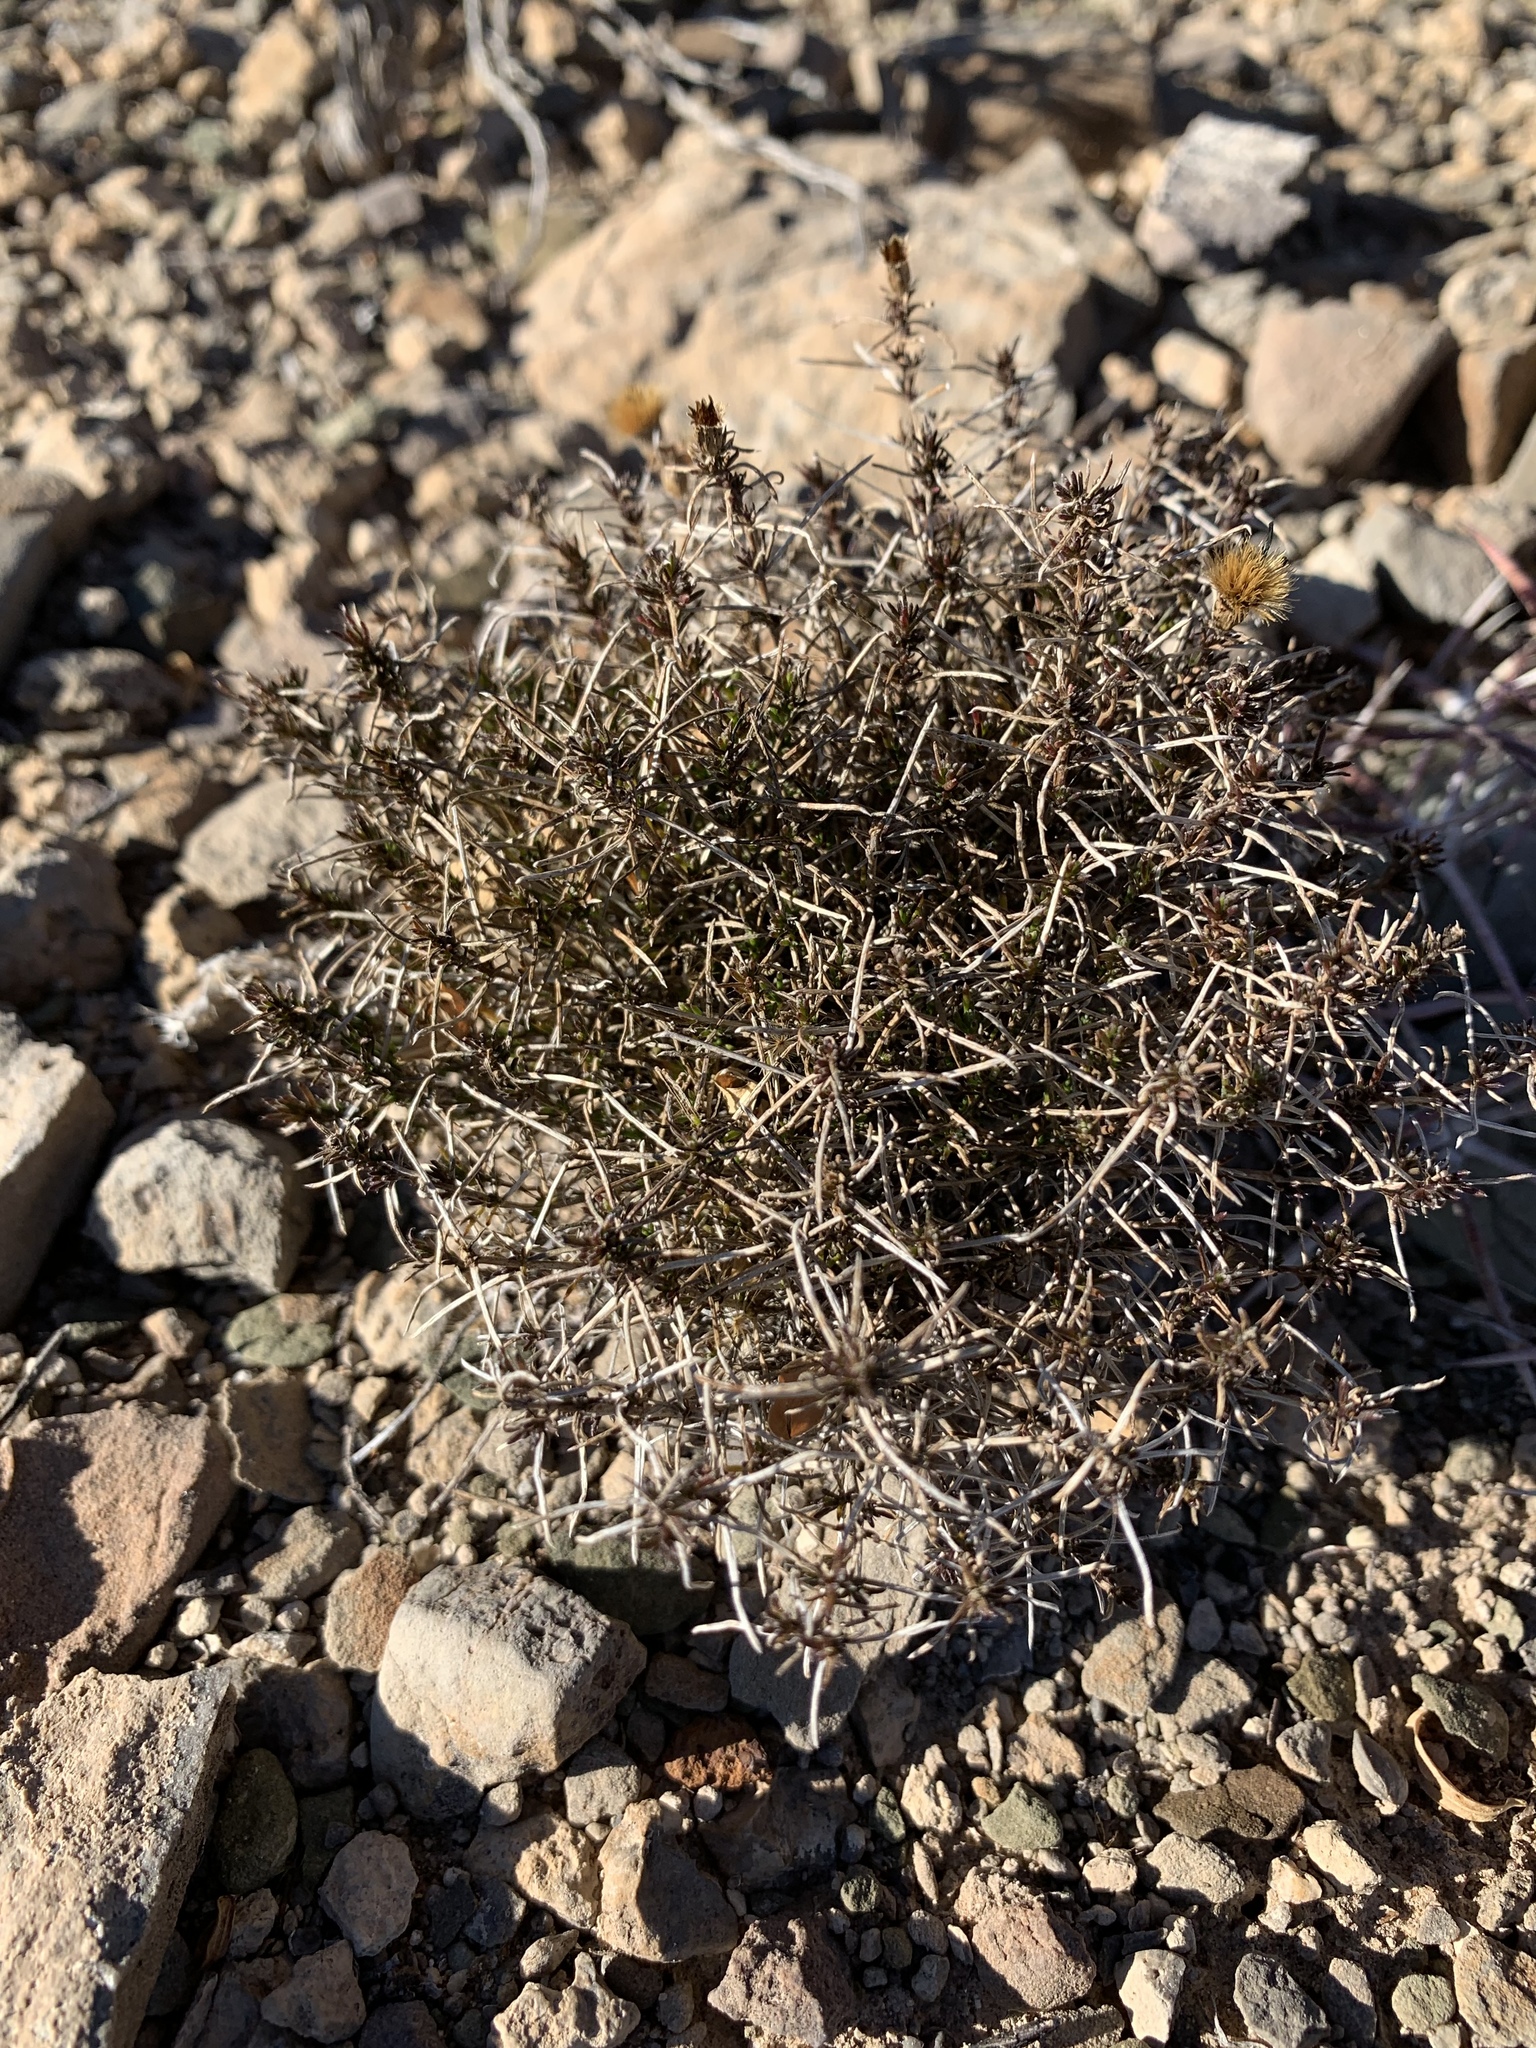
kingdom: Plantae
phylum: Tracheophyta
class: Magnoliopsida
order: Asterales
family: Asteraceae
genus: Thymophylla
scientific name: Thymophylla acerosa
